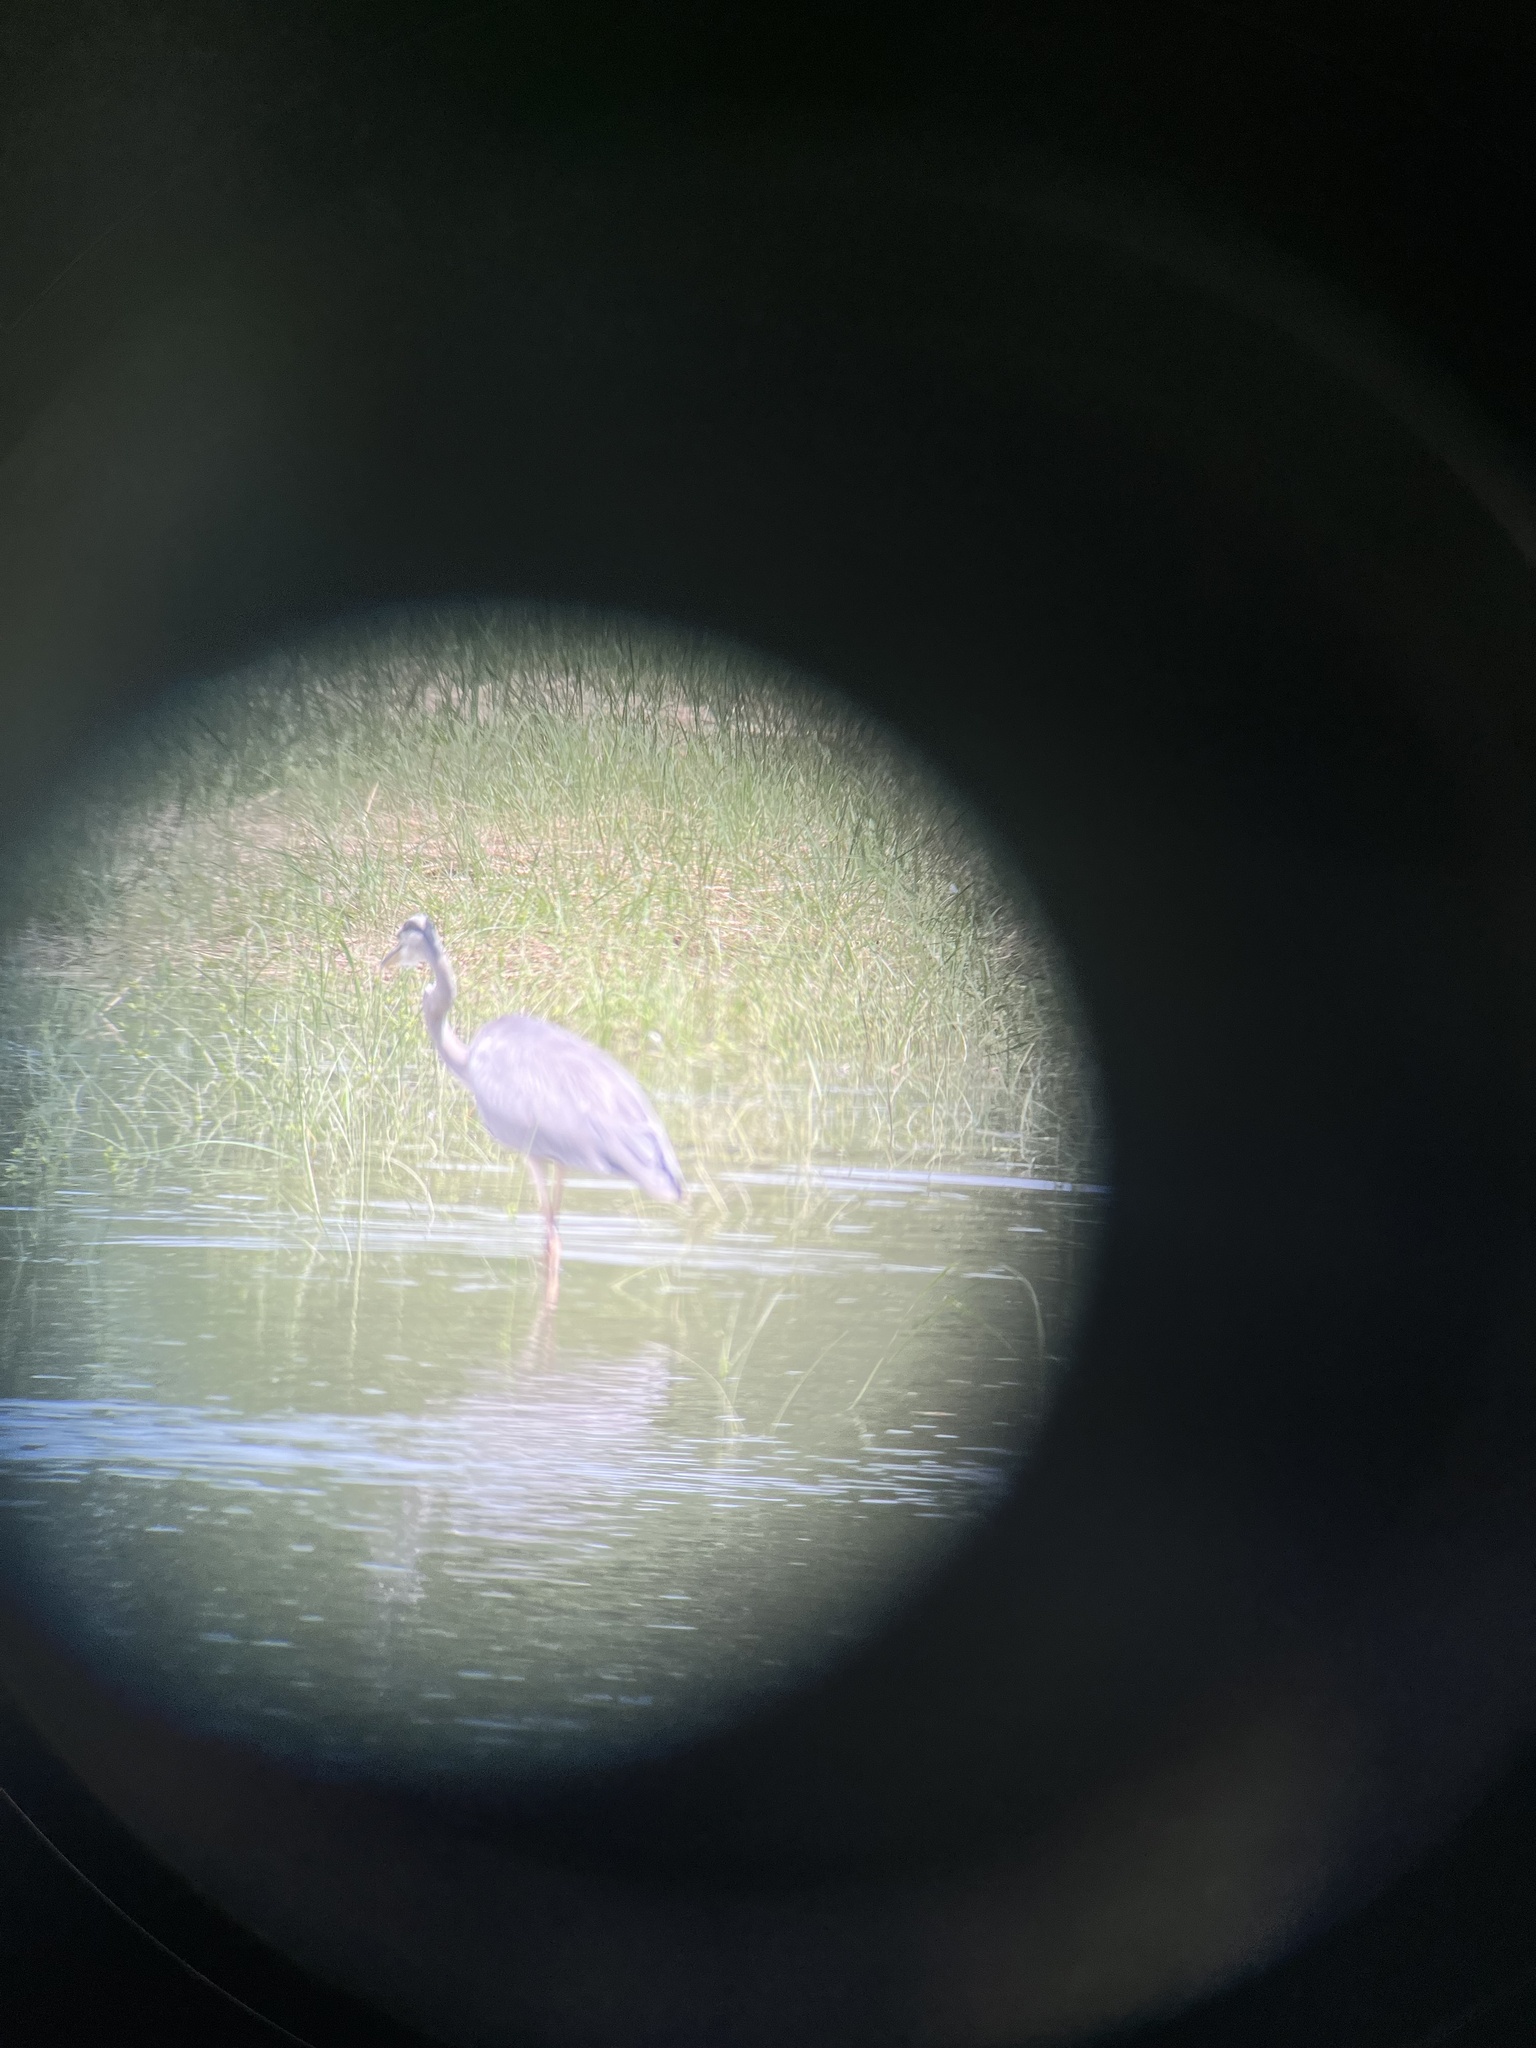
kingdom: Animalia
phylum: Chordata
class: Aves
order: Pelecaniformes
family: Ardeidae
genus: Ardea
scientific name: Ardea cinerea
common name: Grey heron
